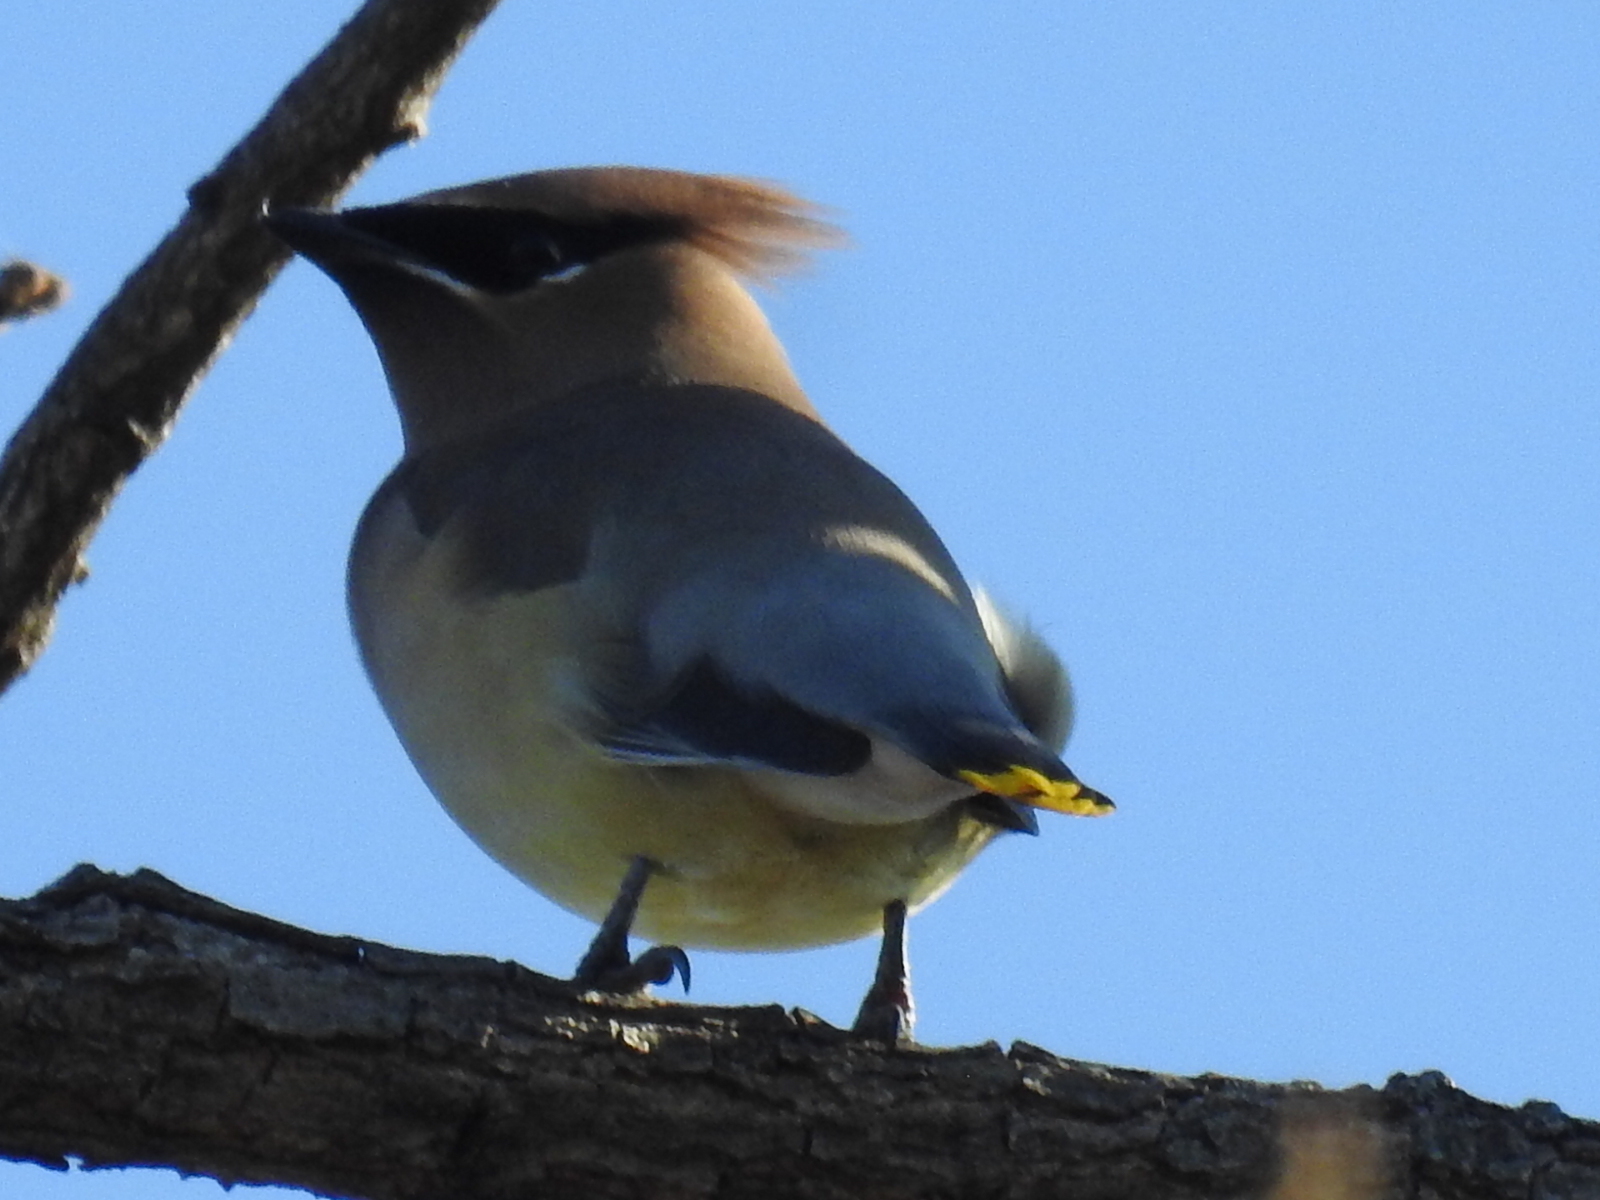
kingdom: Animalia
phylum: Chordata
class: Aves
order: Passeriformes
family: Bombycillidae
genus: Bombycilla
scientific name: Bombycilla cedrorum
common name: Cedar waxwing
